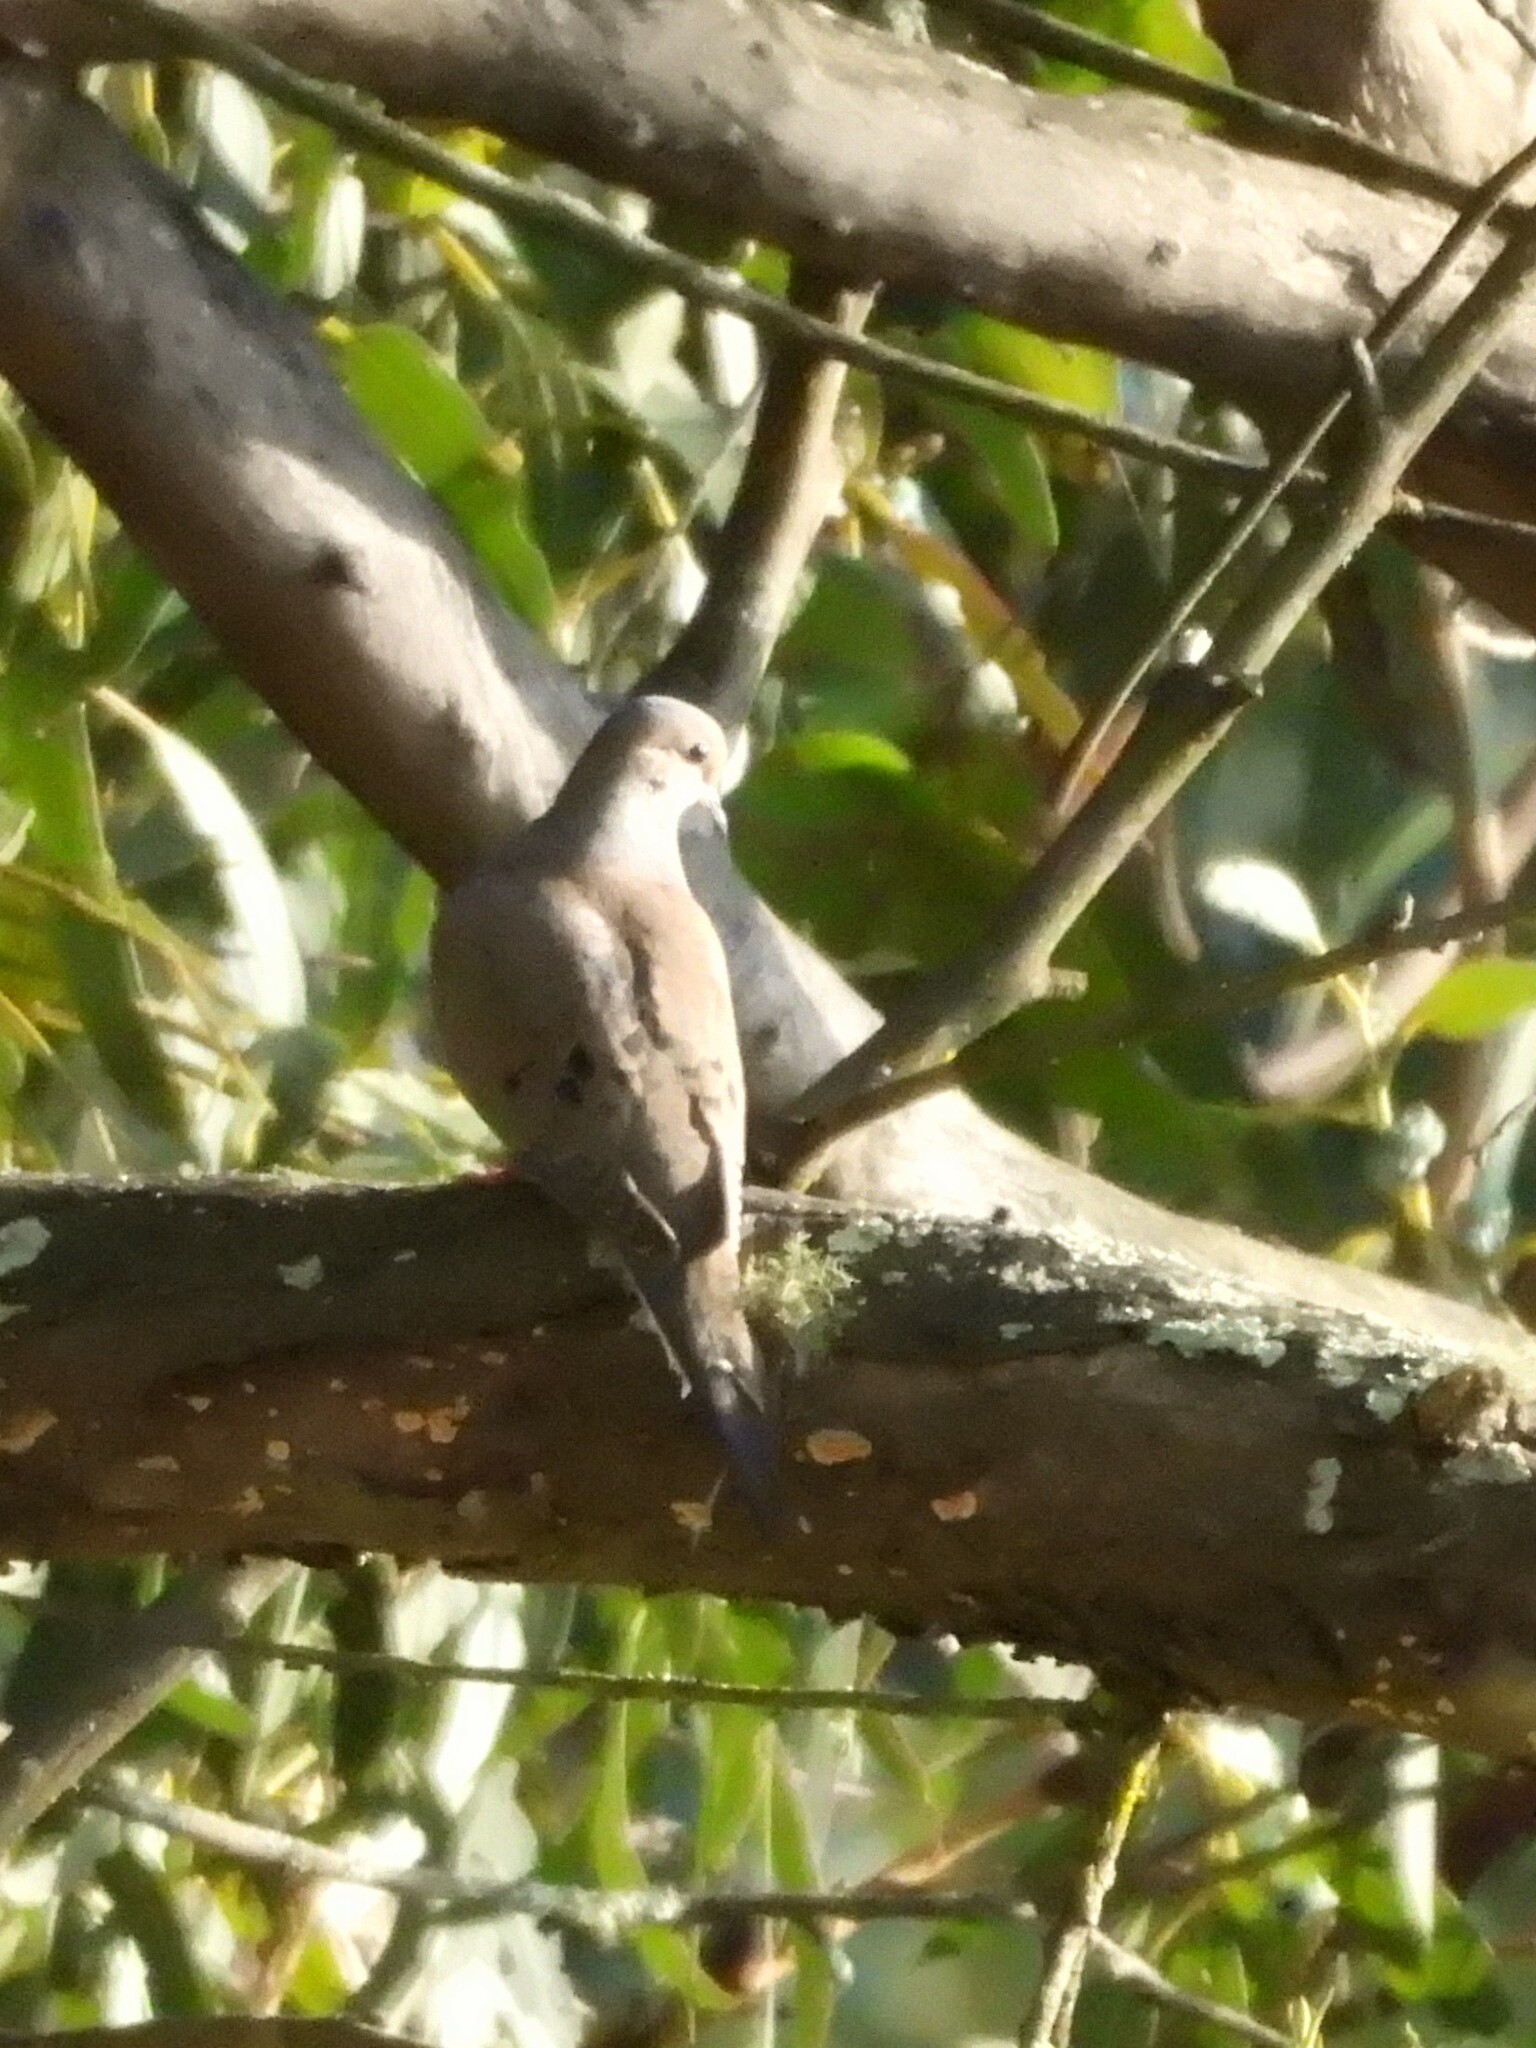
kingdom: Animalia
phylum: Chordata
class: Aves
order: Columbiformes
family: Columbidae
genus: Zenaida
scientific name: Zenaida macroura
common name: Mourning dove
